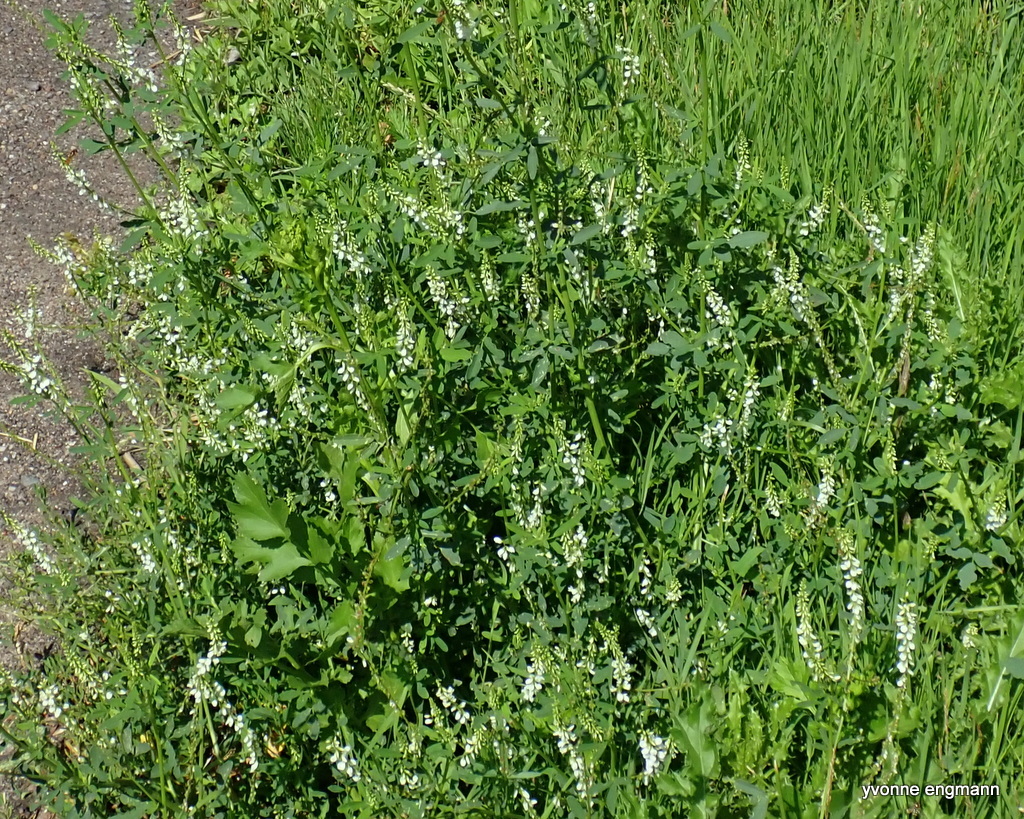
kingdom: Plantae
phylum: Tracheophyta
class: Magnoliopsida
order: Fabales
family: Fabaceae
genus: Melilotus
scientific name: Melilotus albus
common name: White melilot
